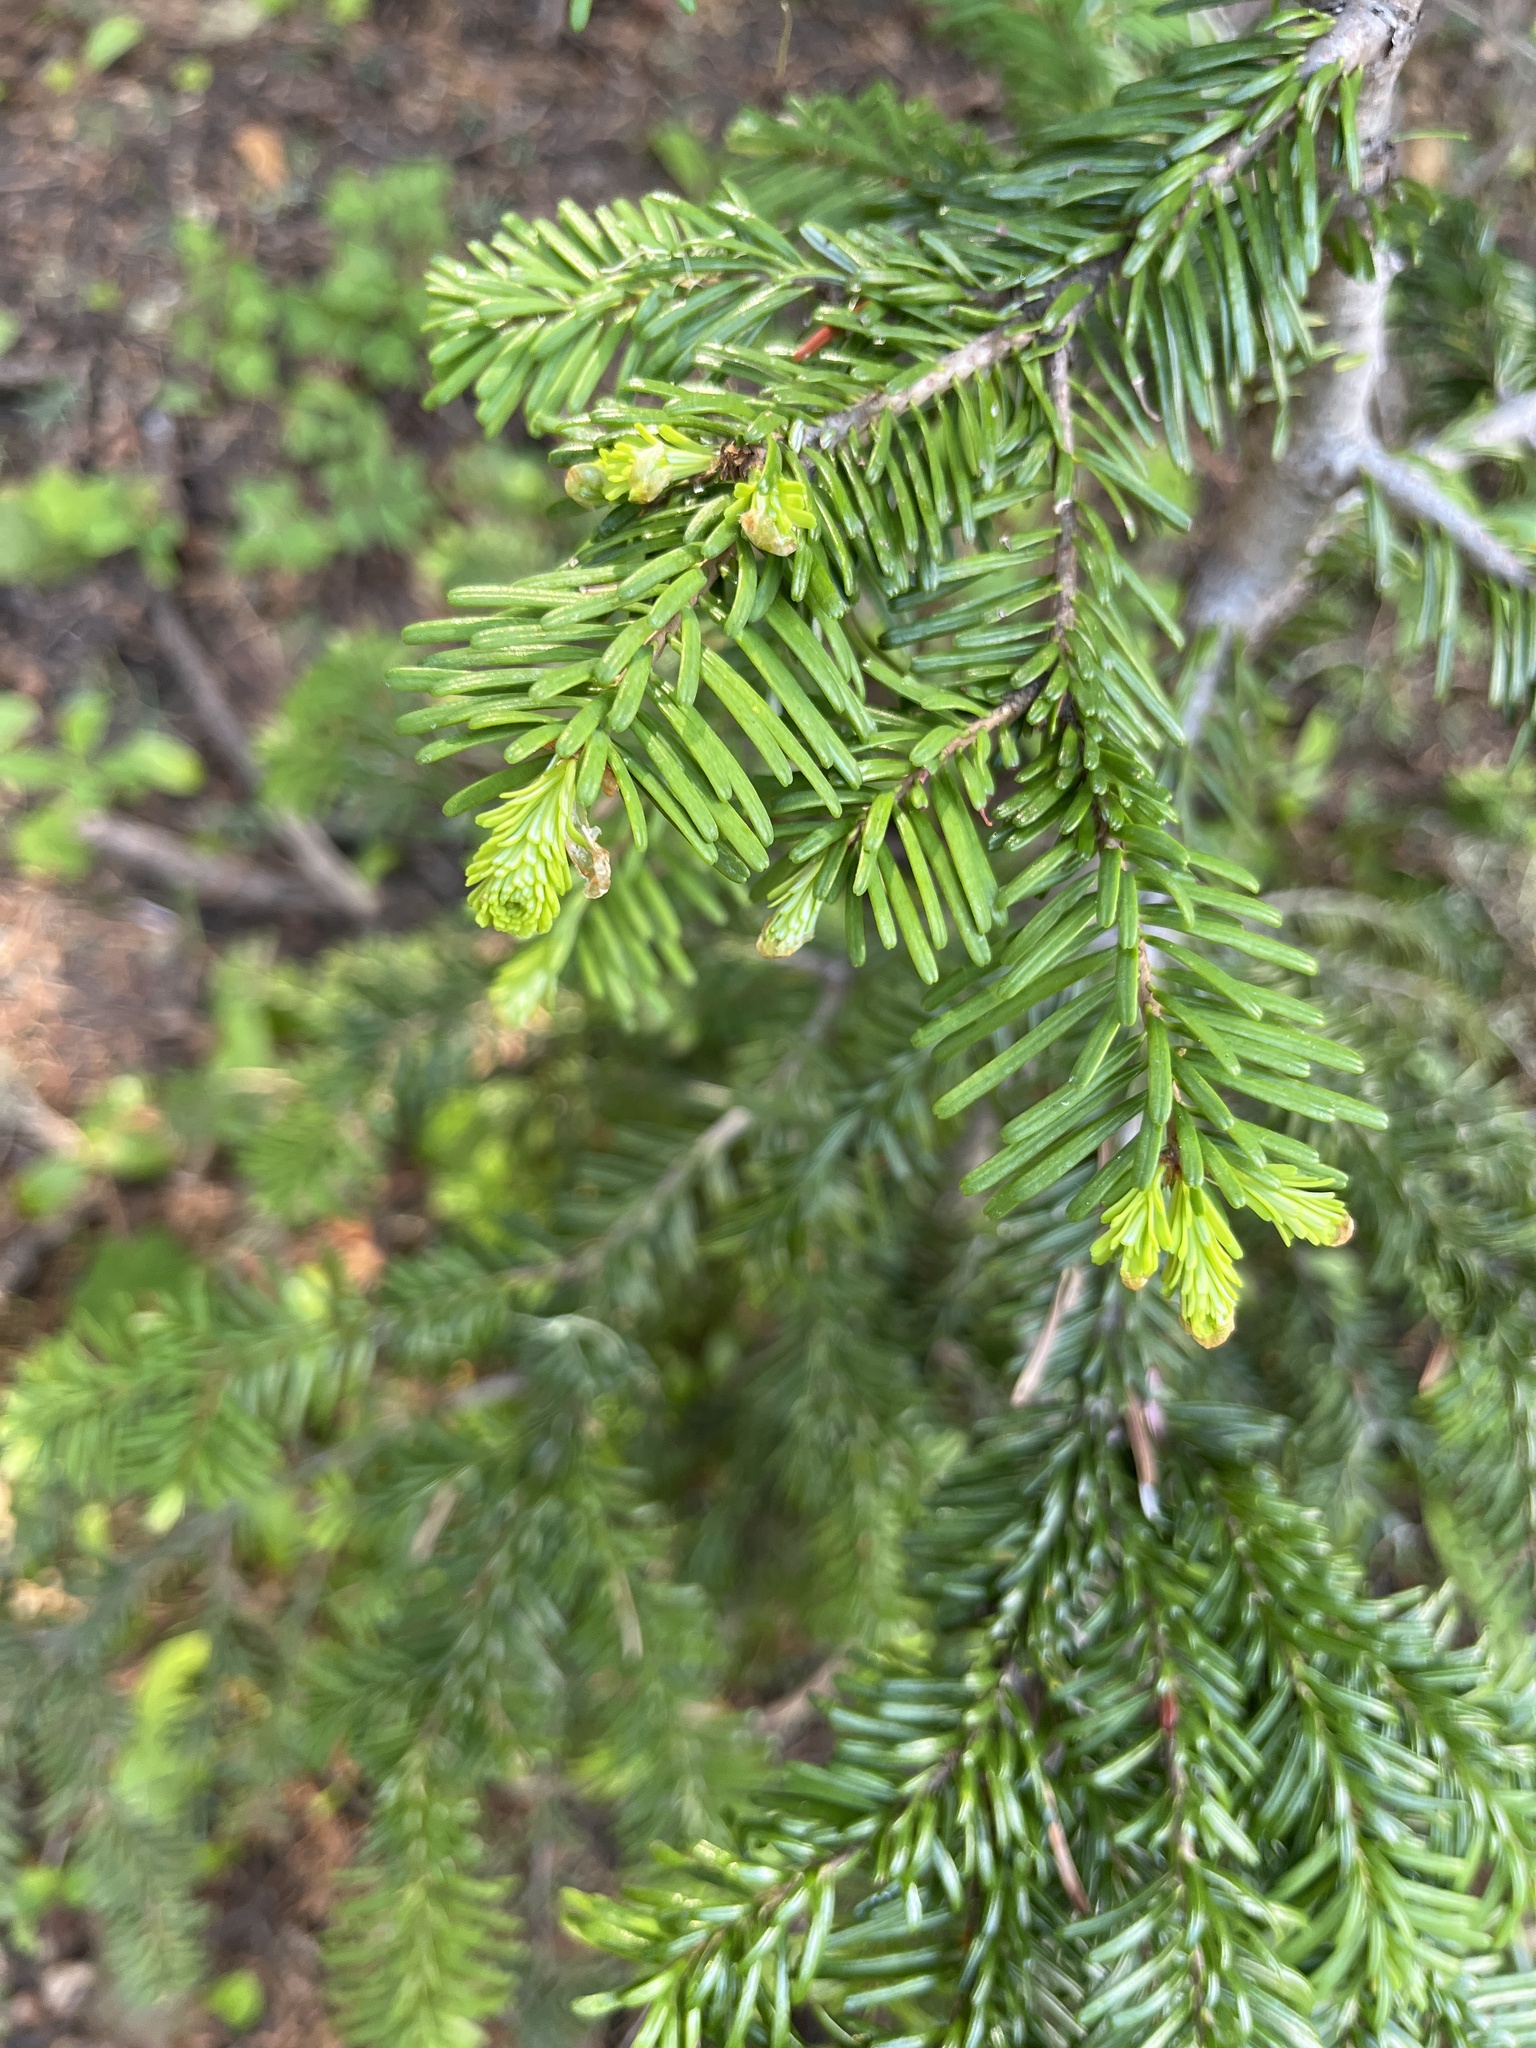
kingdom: Plantae
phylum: Tracheophyta
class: Pinopsida
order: Pinales
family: Pinaceae
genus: Abies
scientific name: Abies amabilis
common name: Pacific silver fir
